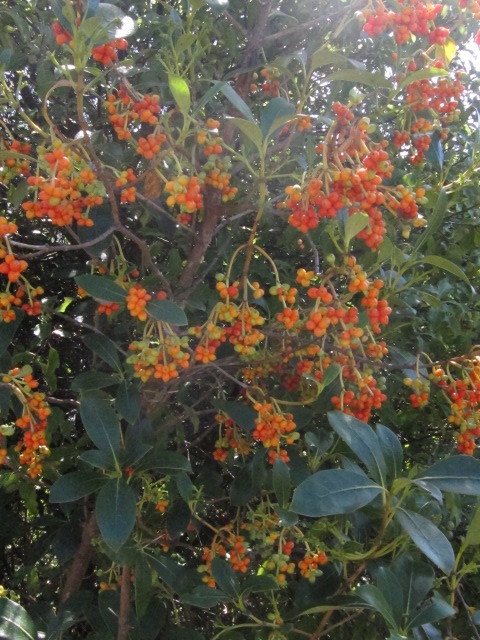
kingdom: Plantae
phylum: Tracheophyta
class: Magnoliopsida
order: Gentianales
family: Rubiaceae
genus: Coprosma
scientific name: Coprosma lucida
